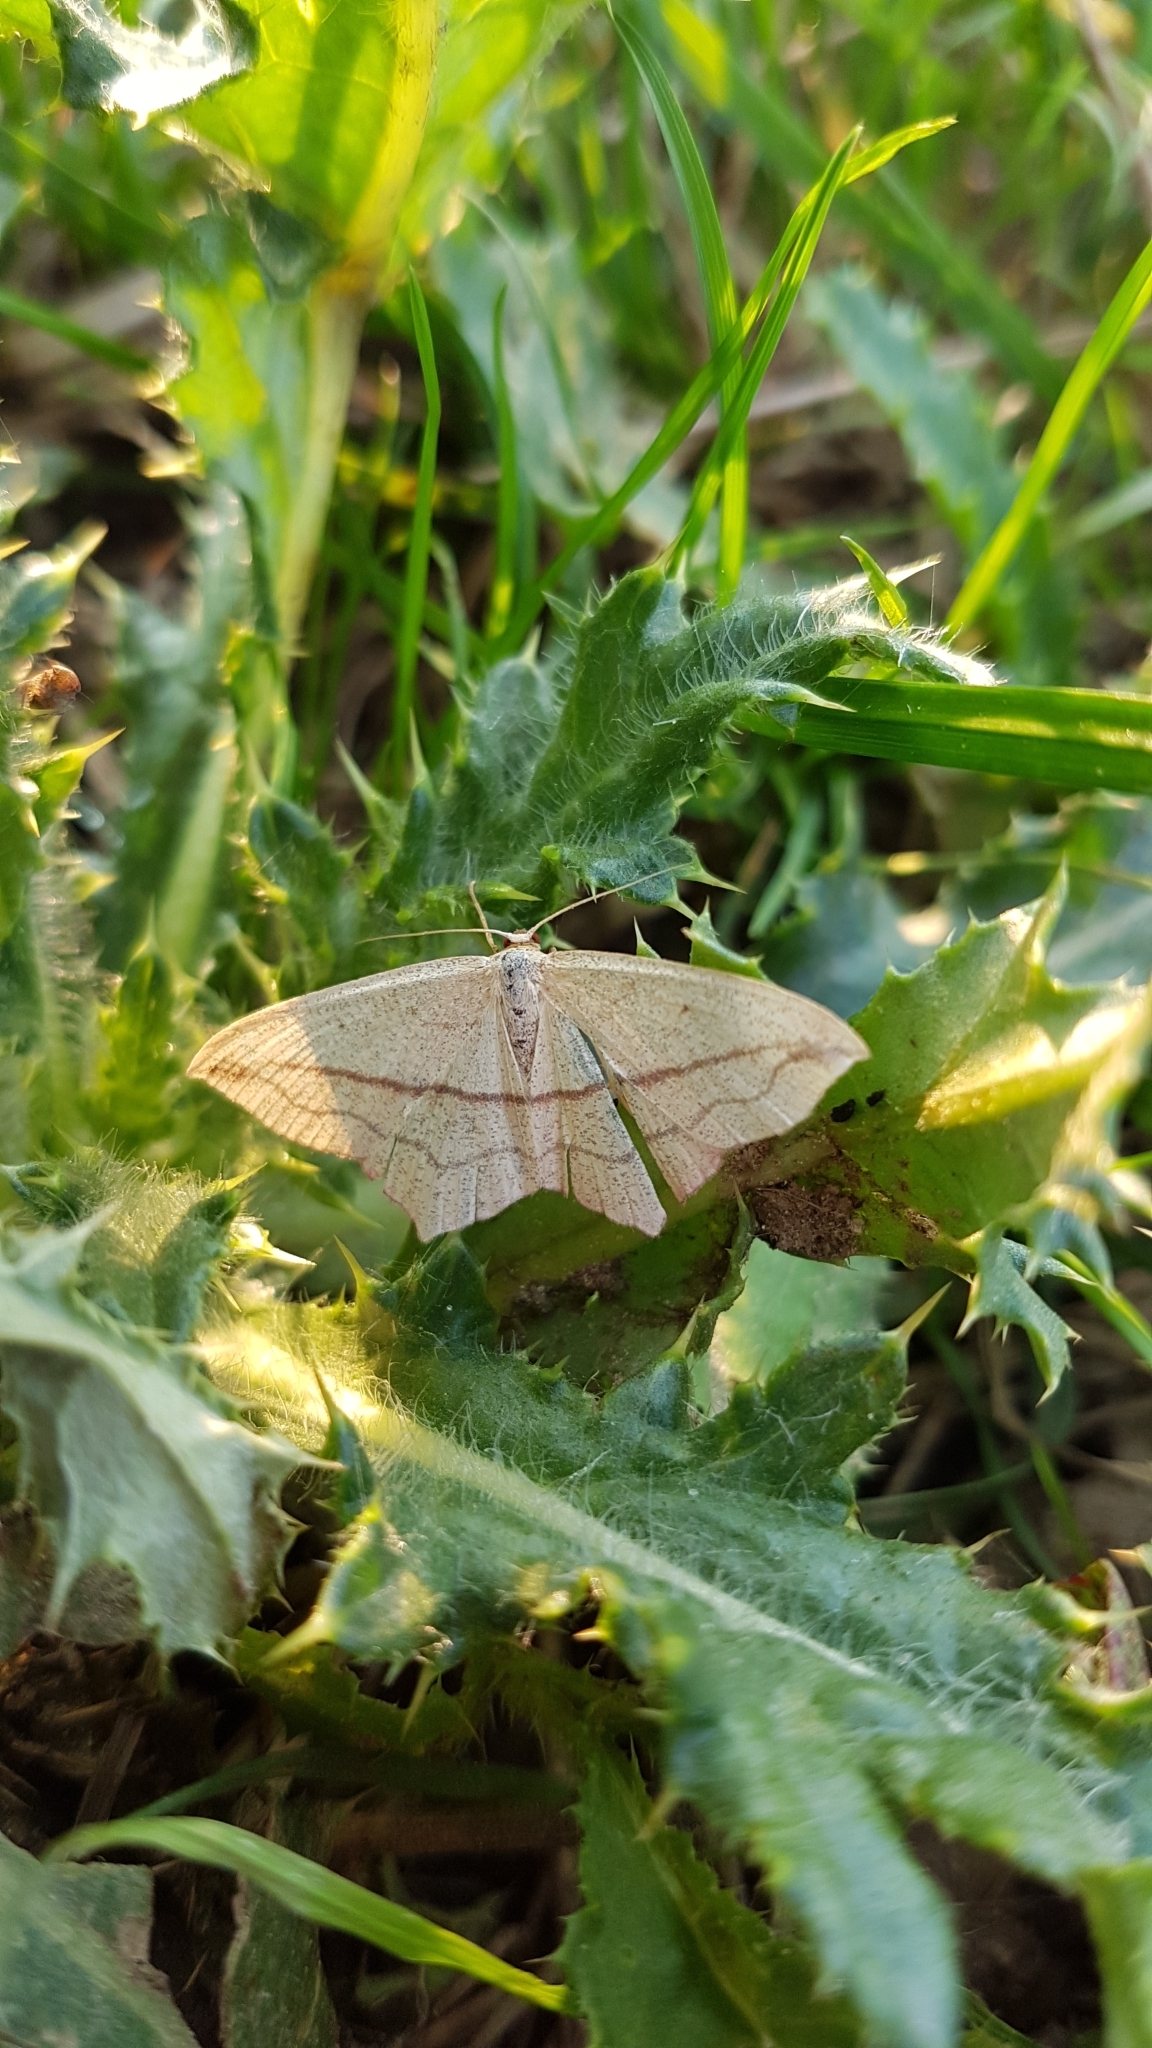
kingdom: Animalia
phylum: Arthropoda
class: Insecta
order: Lepidoptera
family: Geometridae
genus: Timandra
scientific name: Timandra comae
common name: Blood-vein
